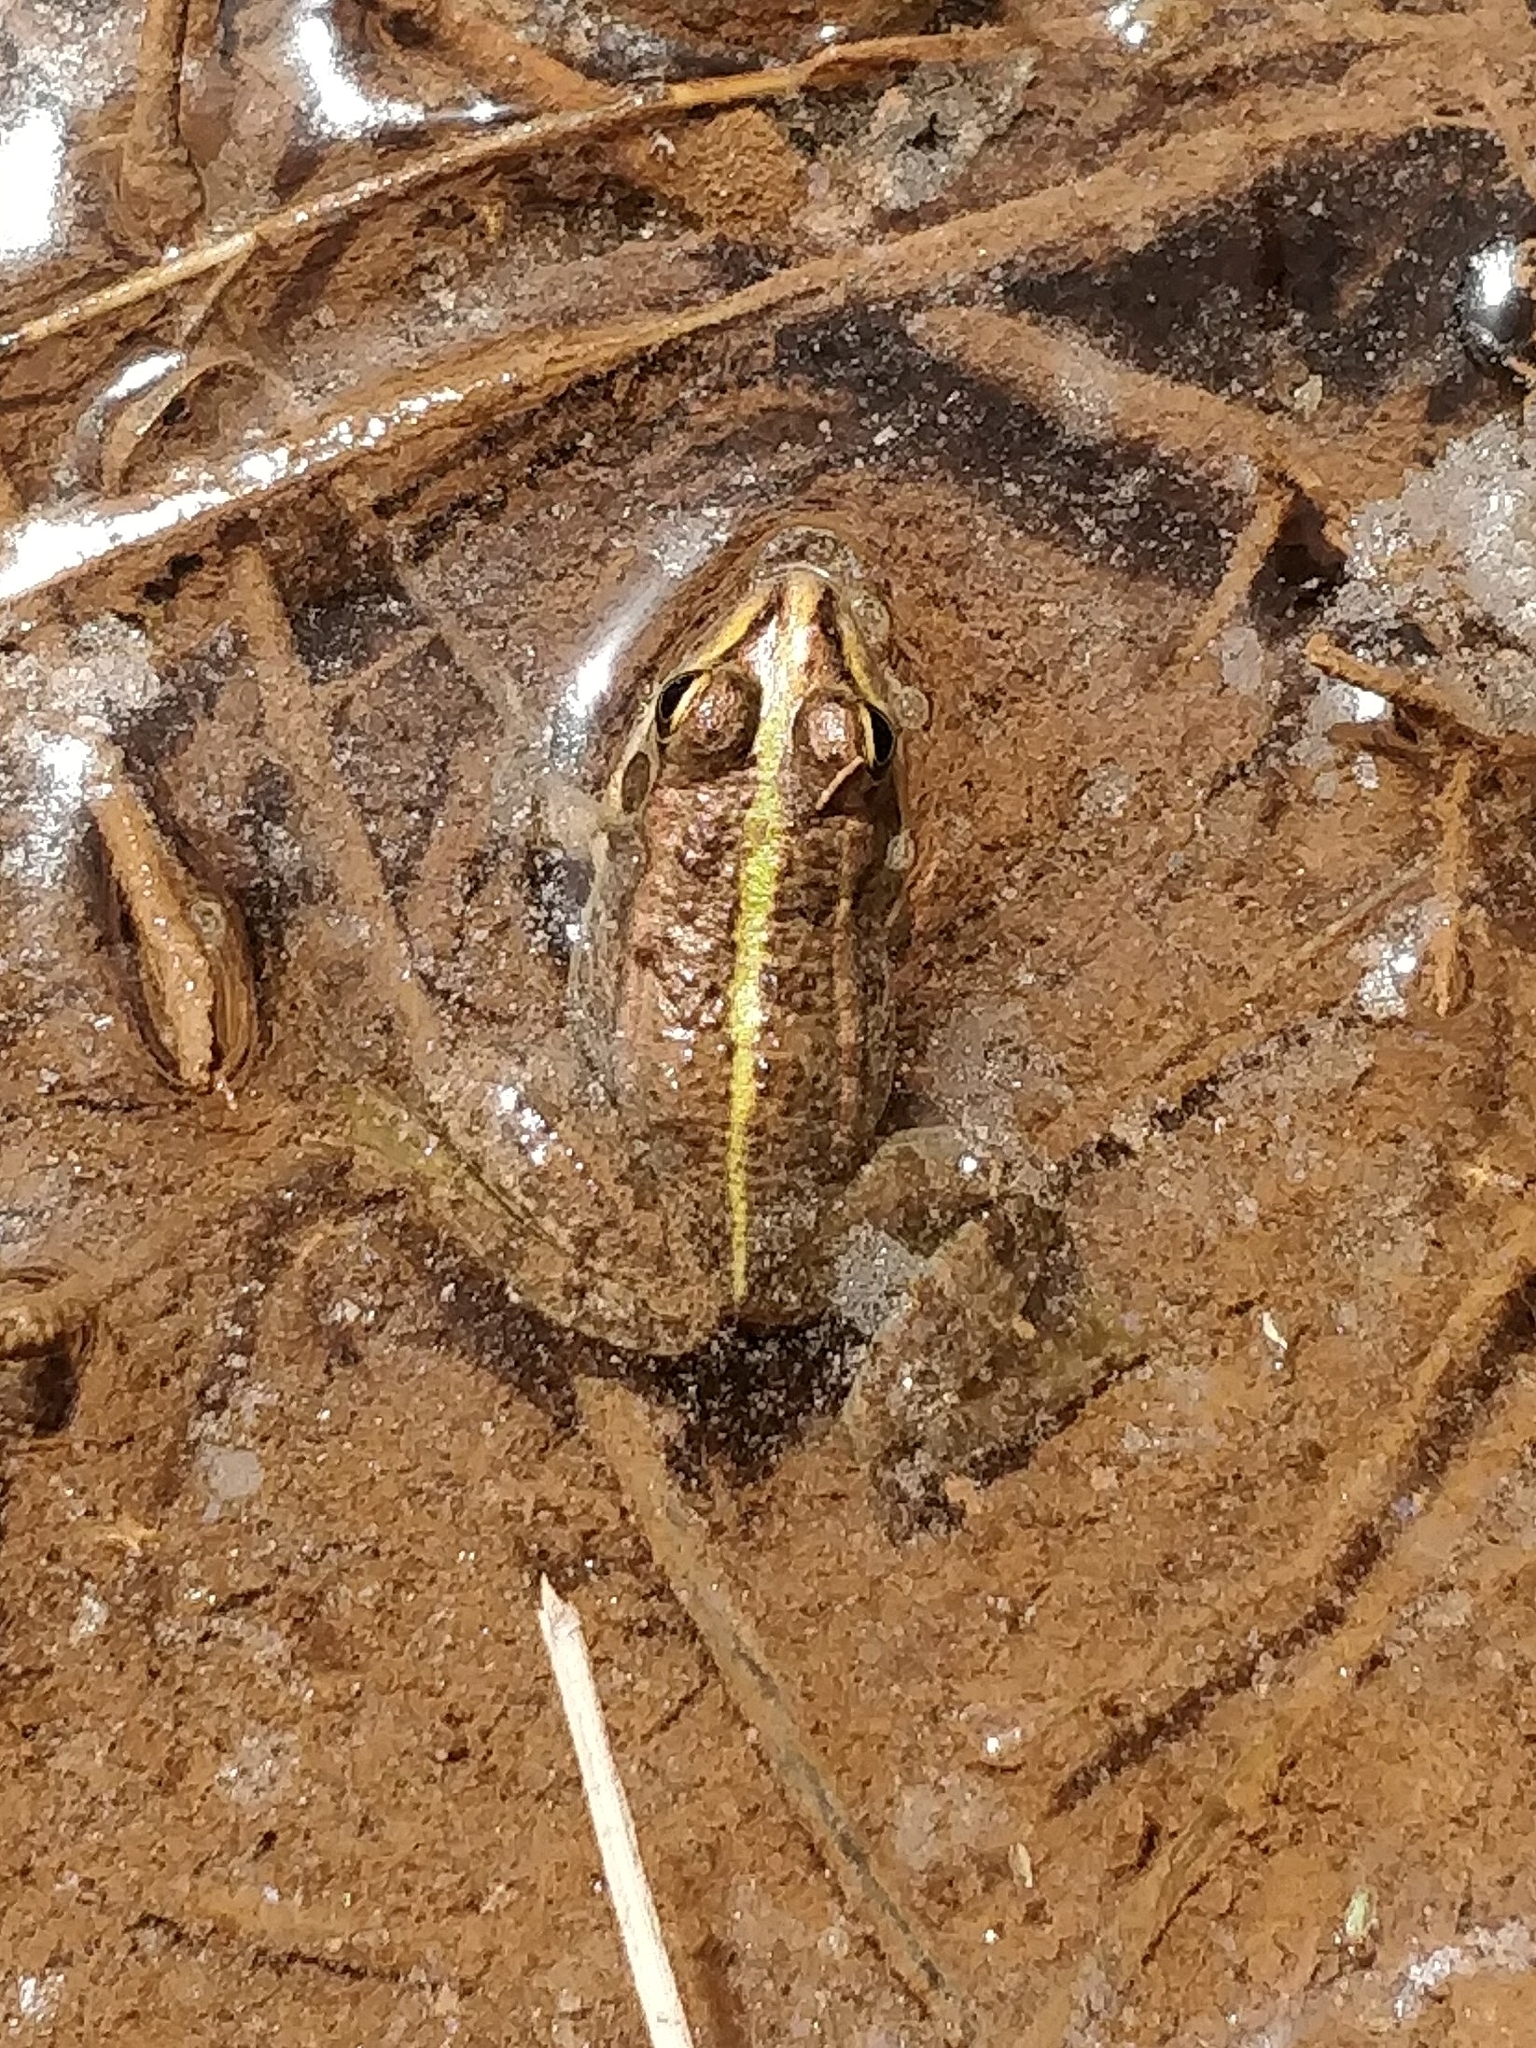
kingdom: Animalia
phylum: Chordata
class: Amphibia
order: Anura
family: Ranidae
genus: Pelophylax
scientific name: Pelophylax saharicus
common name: Sahara frog
